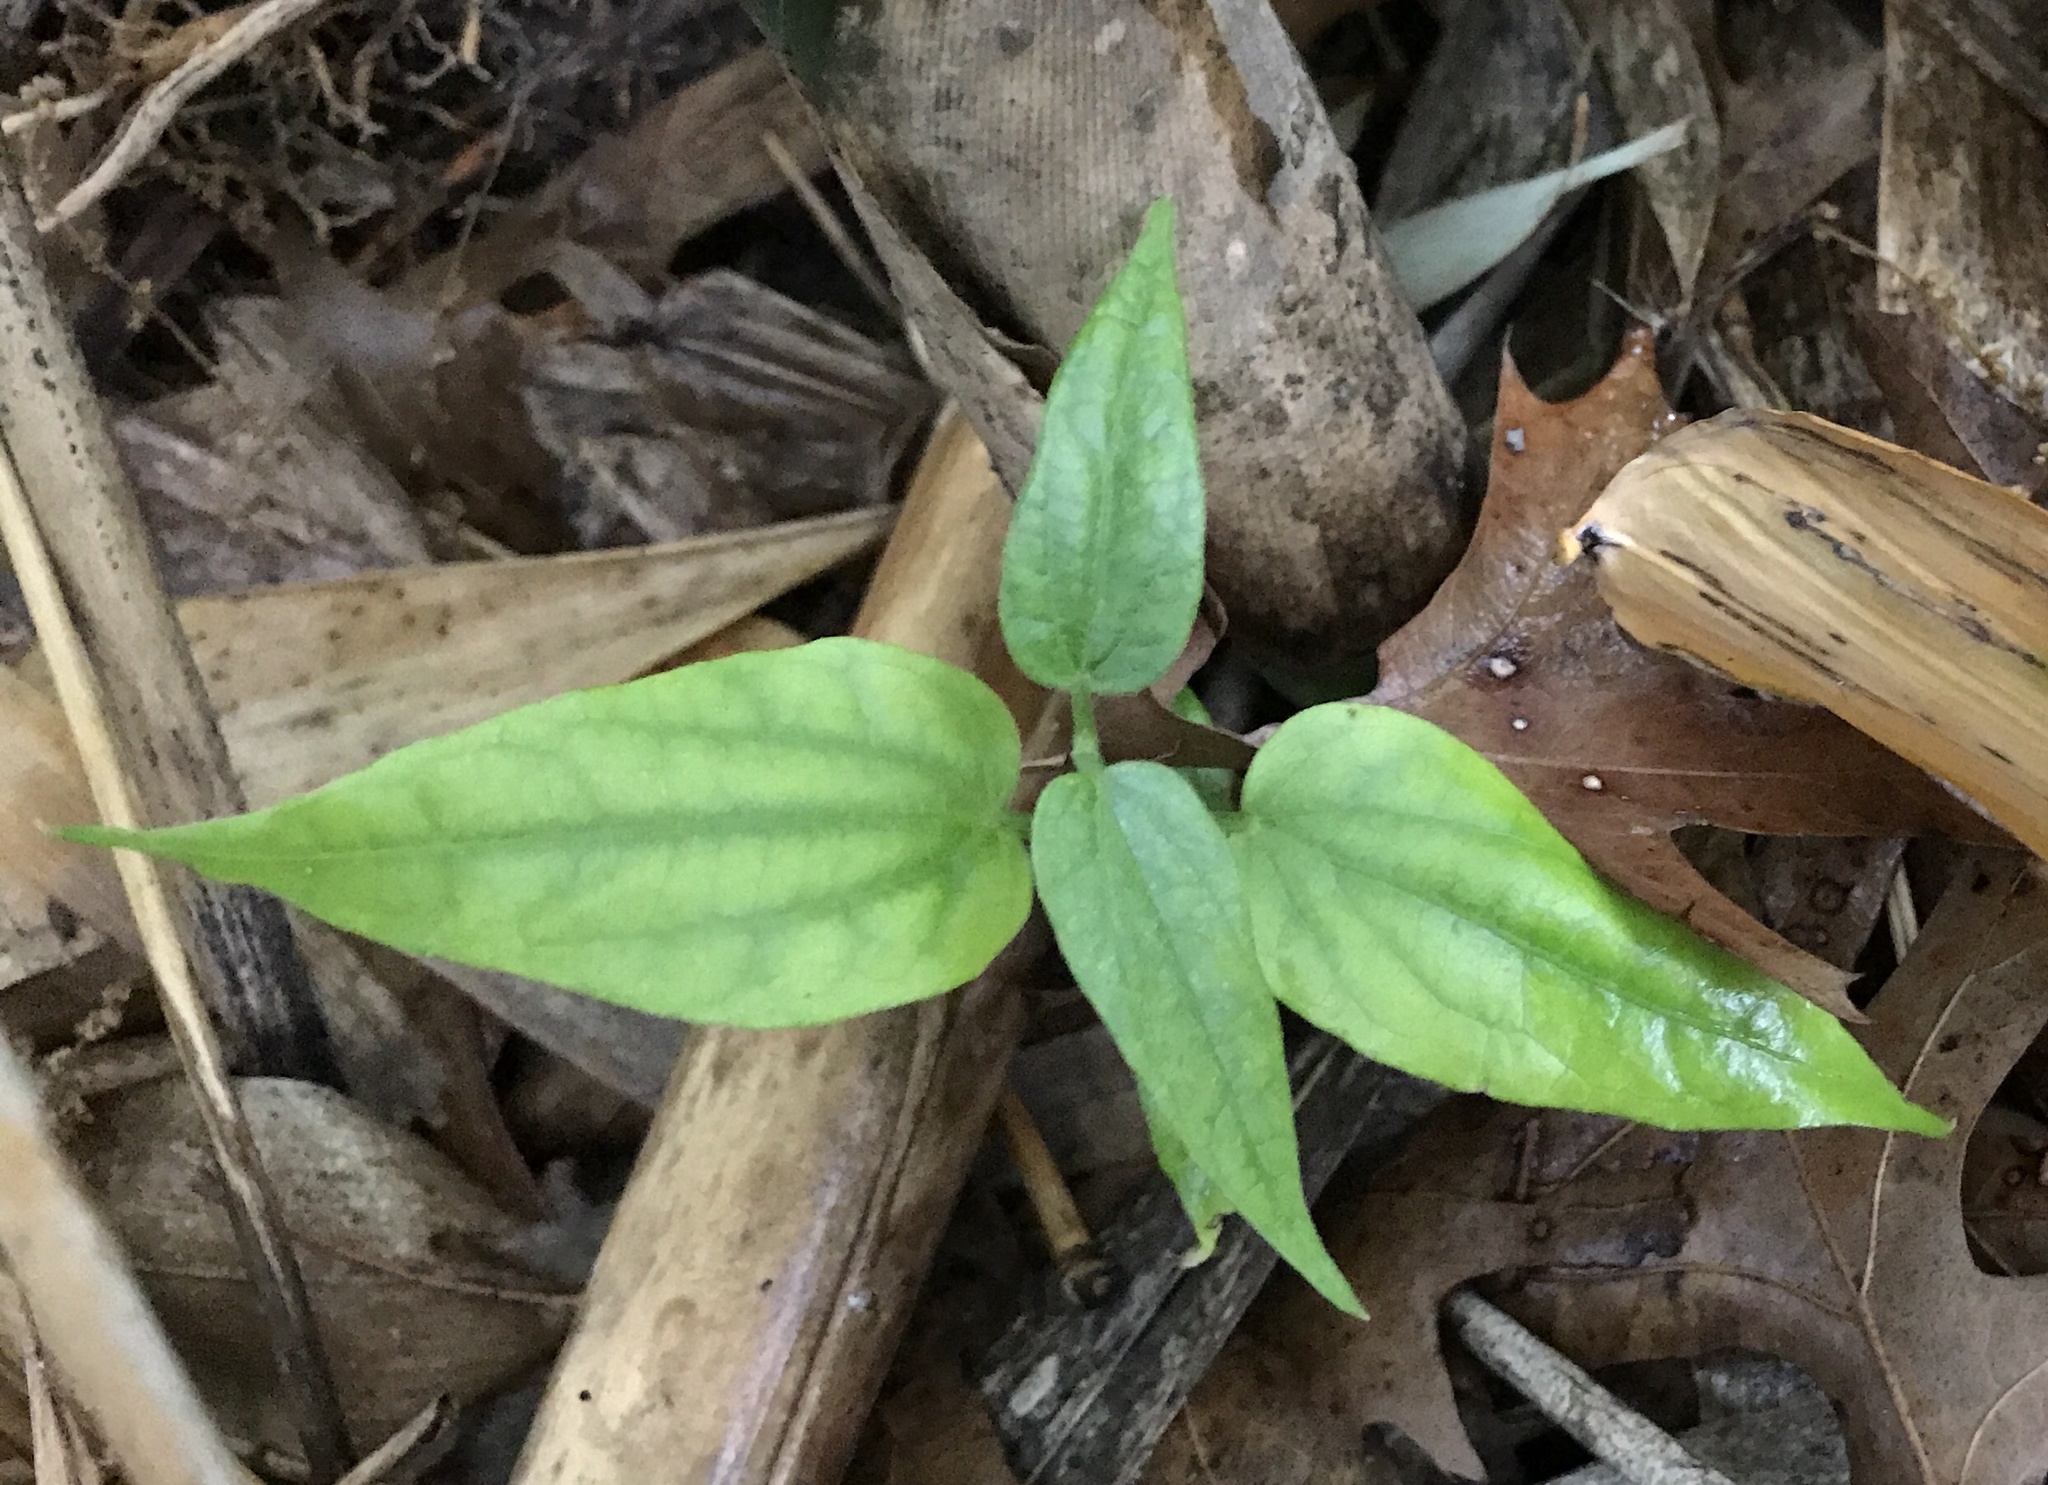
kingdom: Plantae
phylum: Tracheophyta
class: Magnoliopsida
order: Lamiales
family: Acanthaceae
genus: Thunbergia
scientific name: Thunbergia grandiflora
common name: Bengal trumpet
